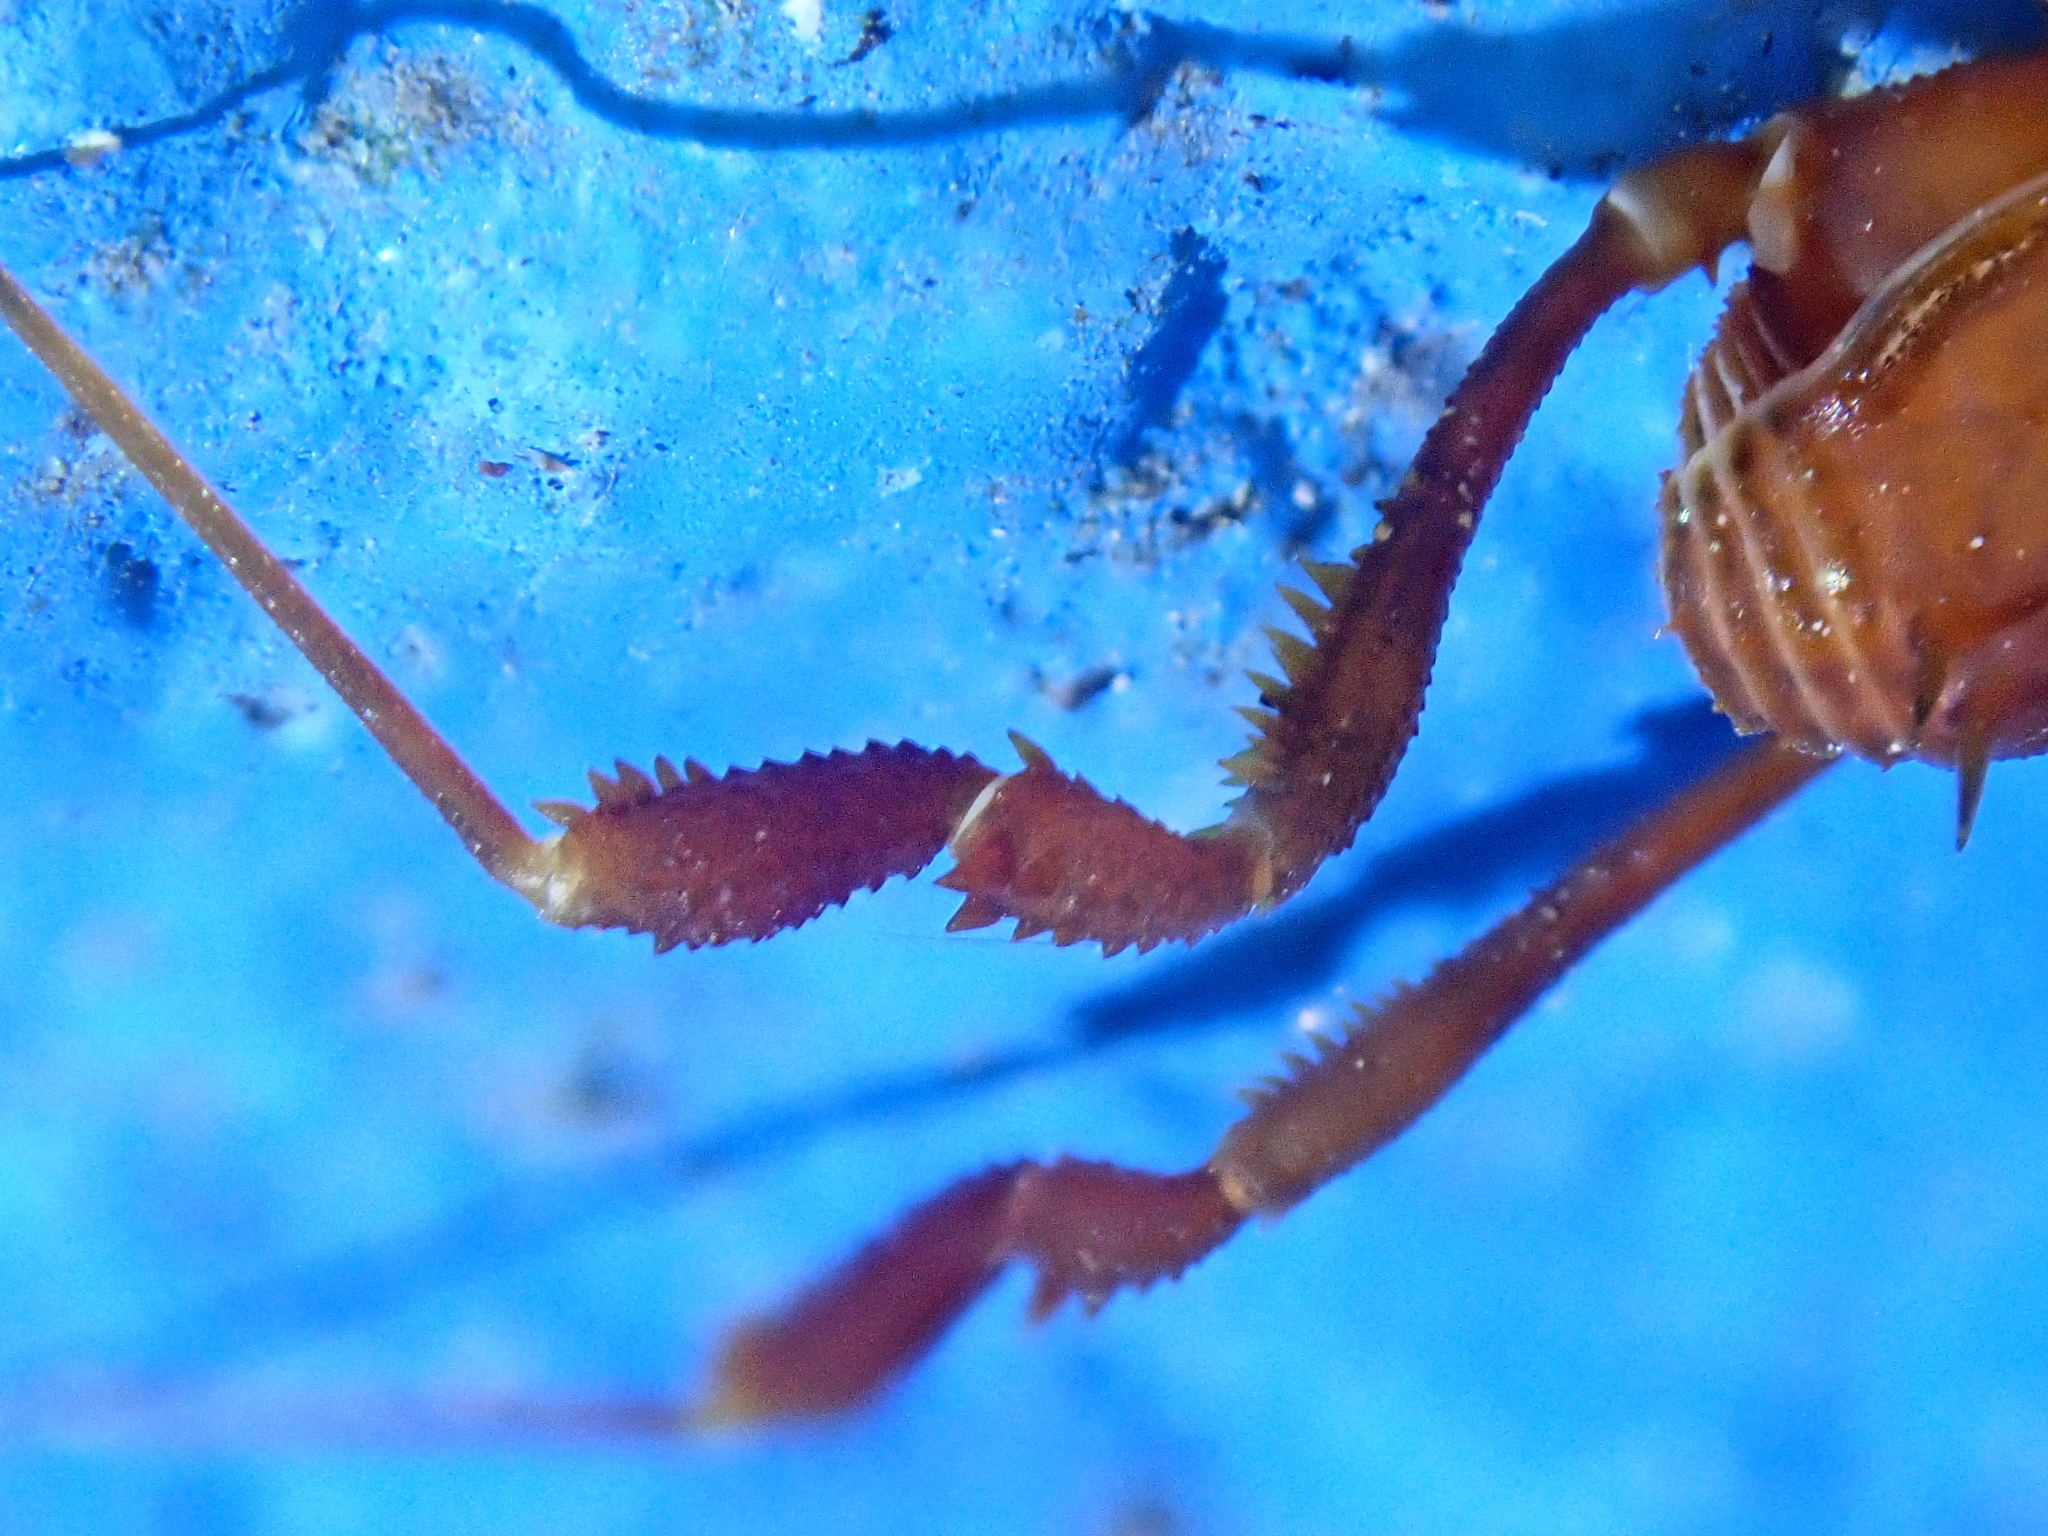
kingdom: Animalia
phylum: Arthropoda
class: Arachnida
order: Opiliones
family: Stygnidae
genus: Stygnus
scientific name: Stygnus polyacanthus
